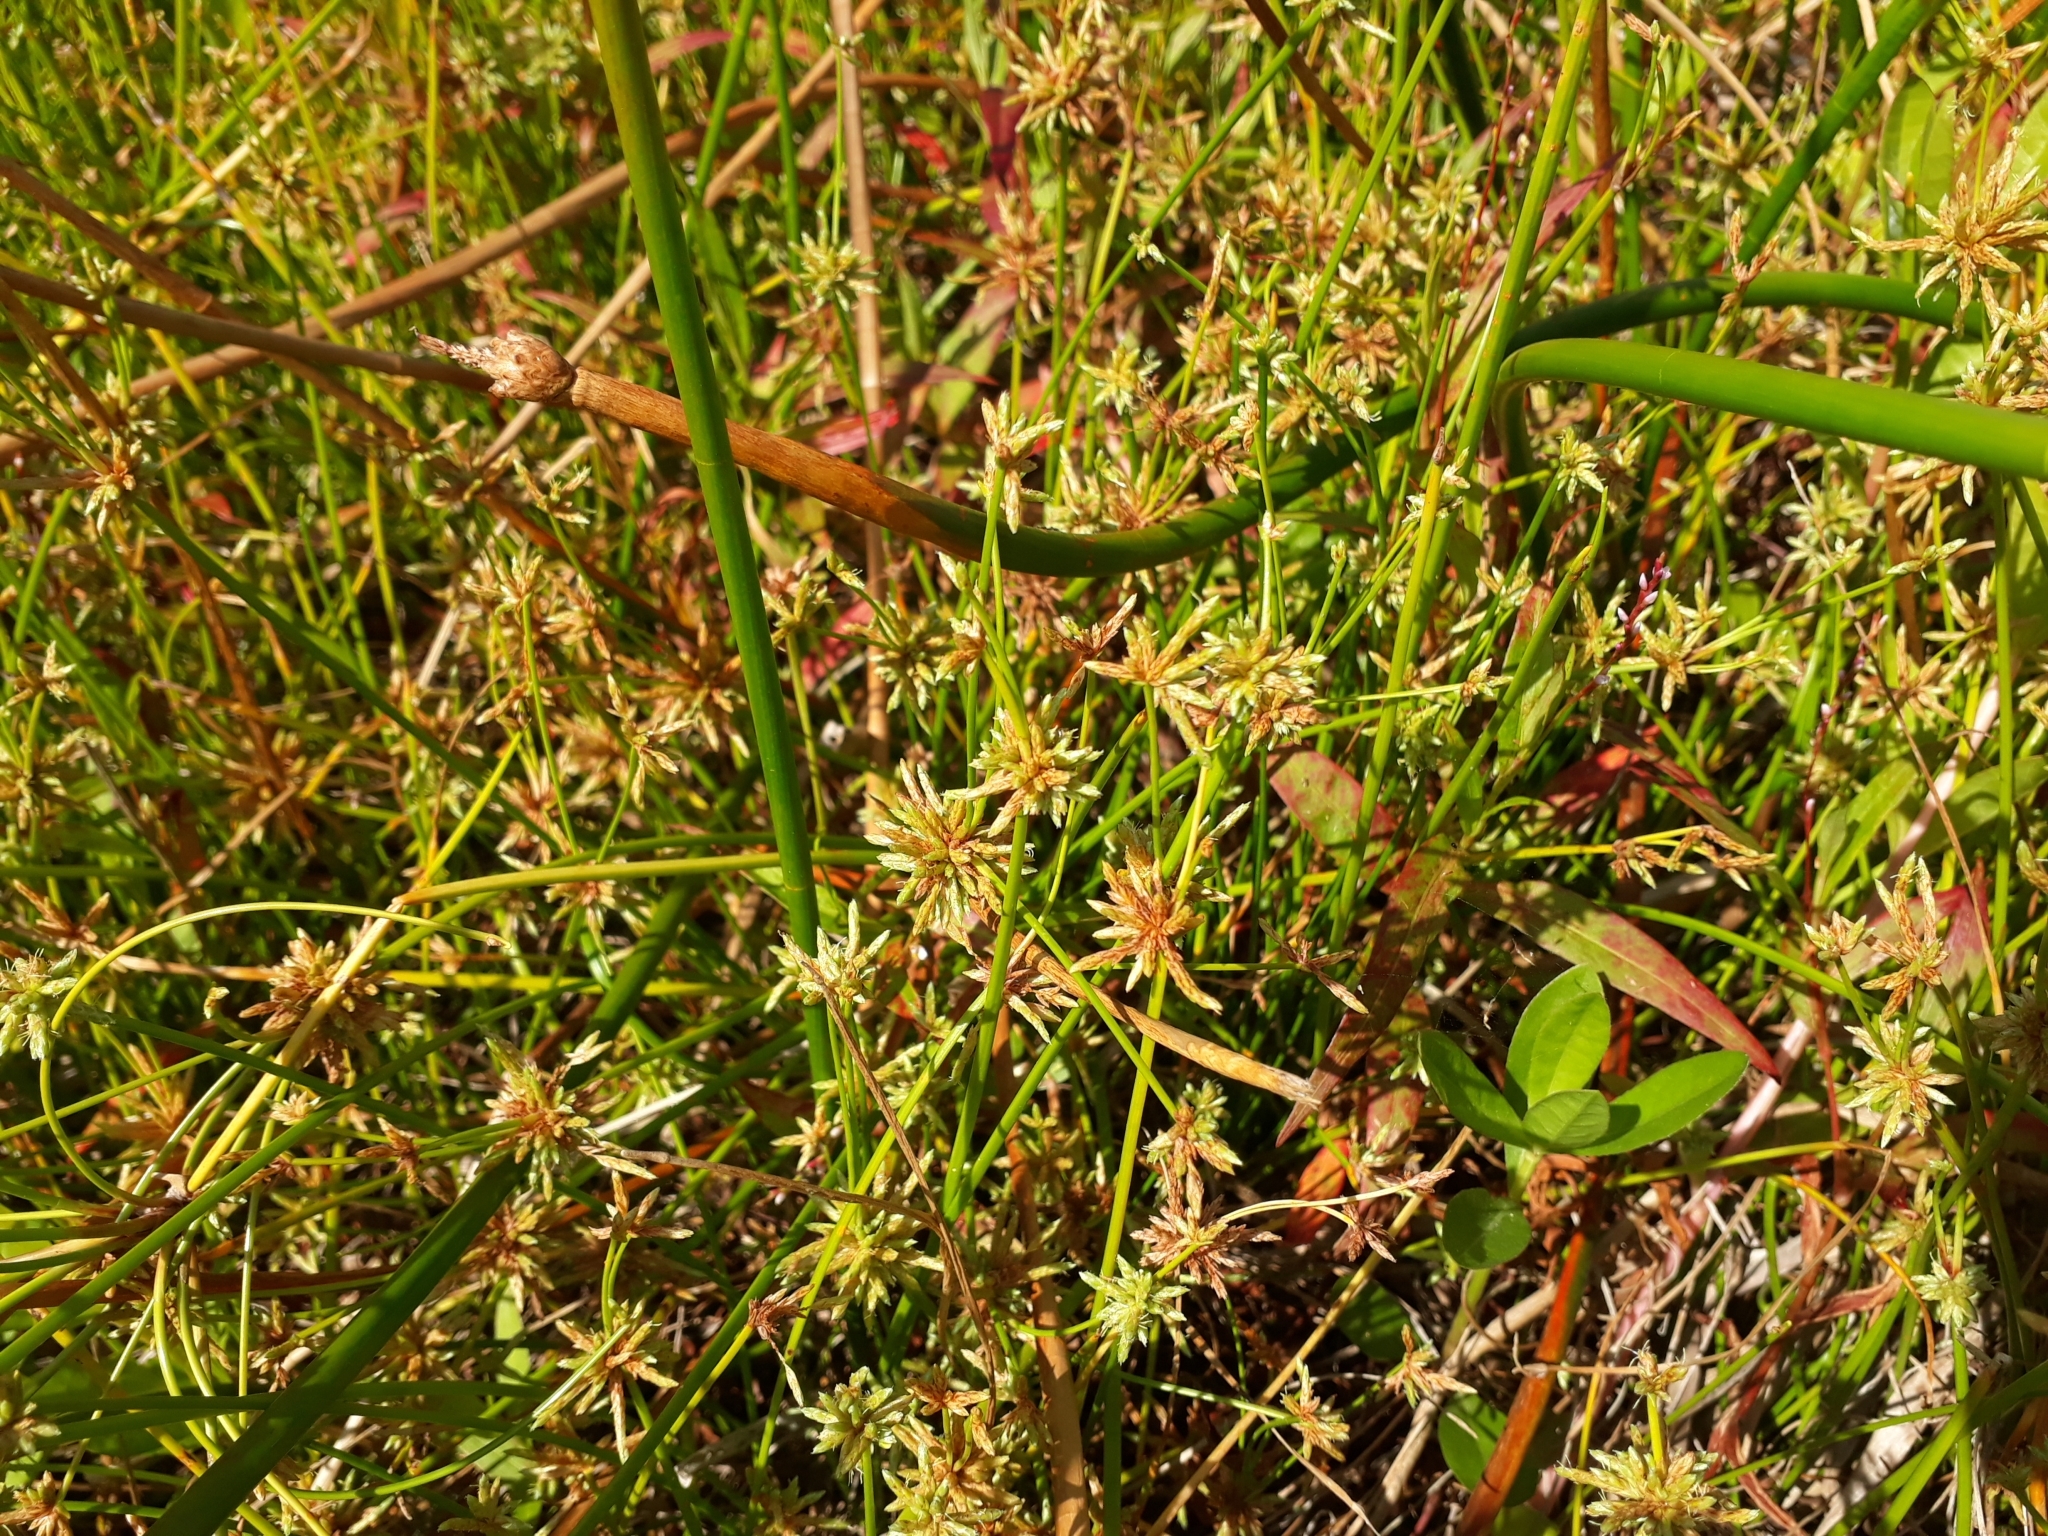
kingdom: Plantae
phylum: Tracheophyta
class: Liliopsida
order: Poales
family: Cyperaceae
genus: Isolepis
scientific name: Isolepis prolifera
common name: Proliferating bulrush
